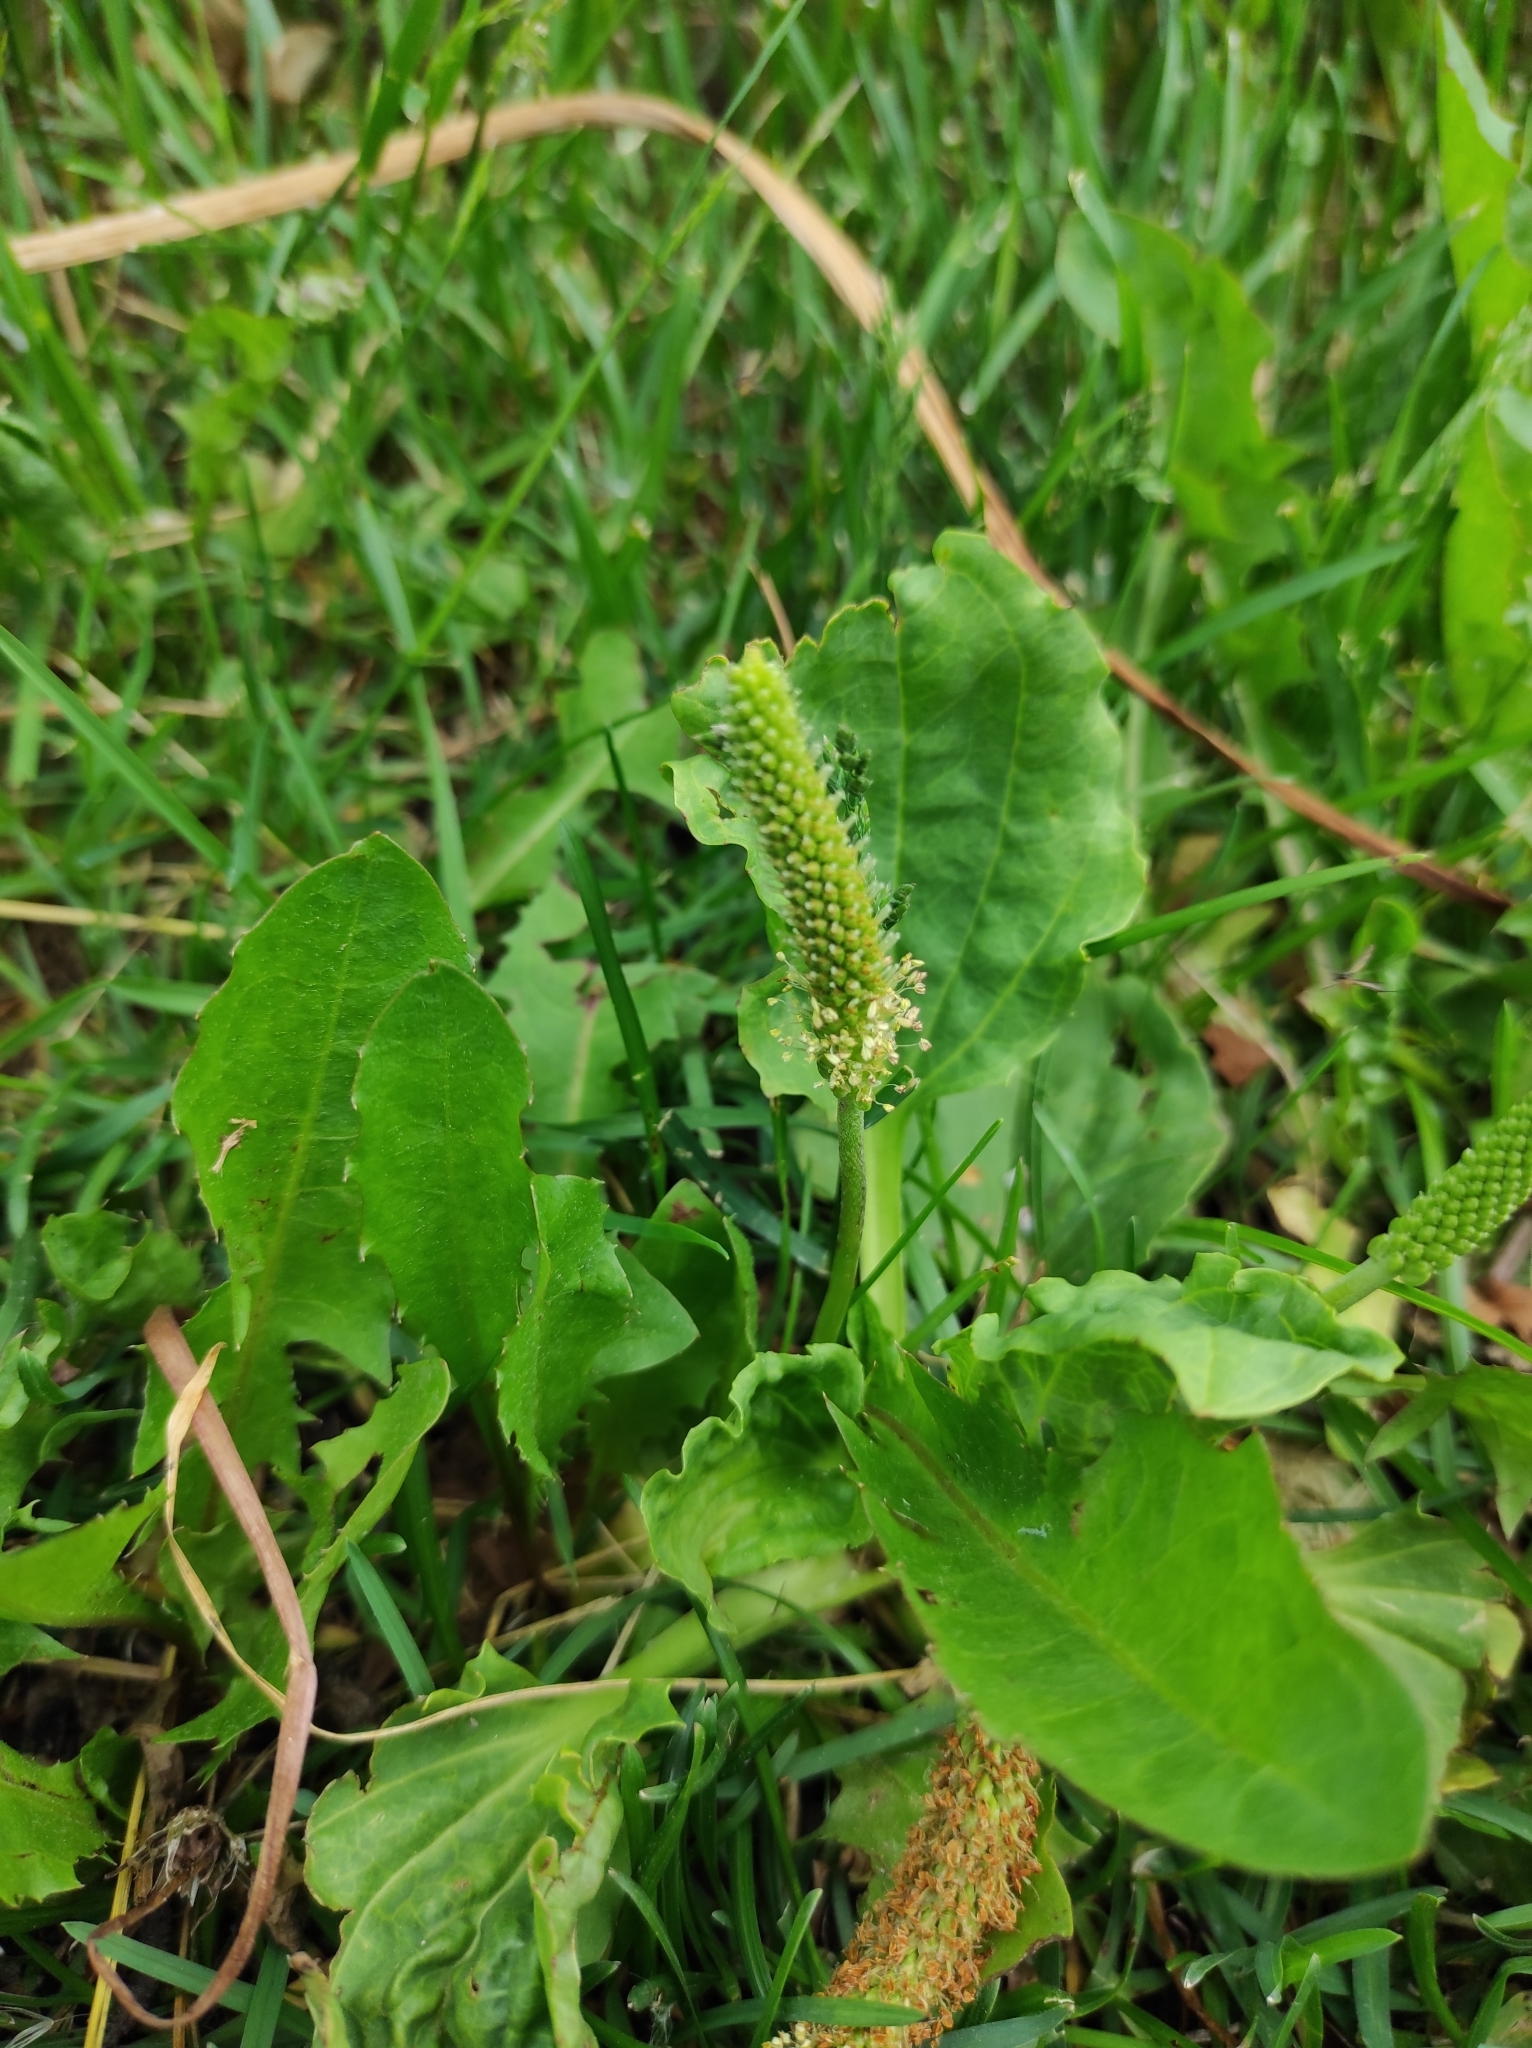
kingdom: Plantae
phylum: Tracheophyta
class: Magnoliopsida
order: Lamiales
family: Plantaginaceae
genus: Plantago
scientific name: Plantago major
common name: Common plantain
